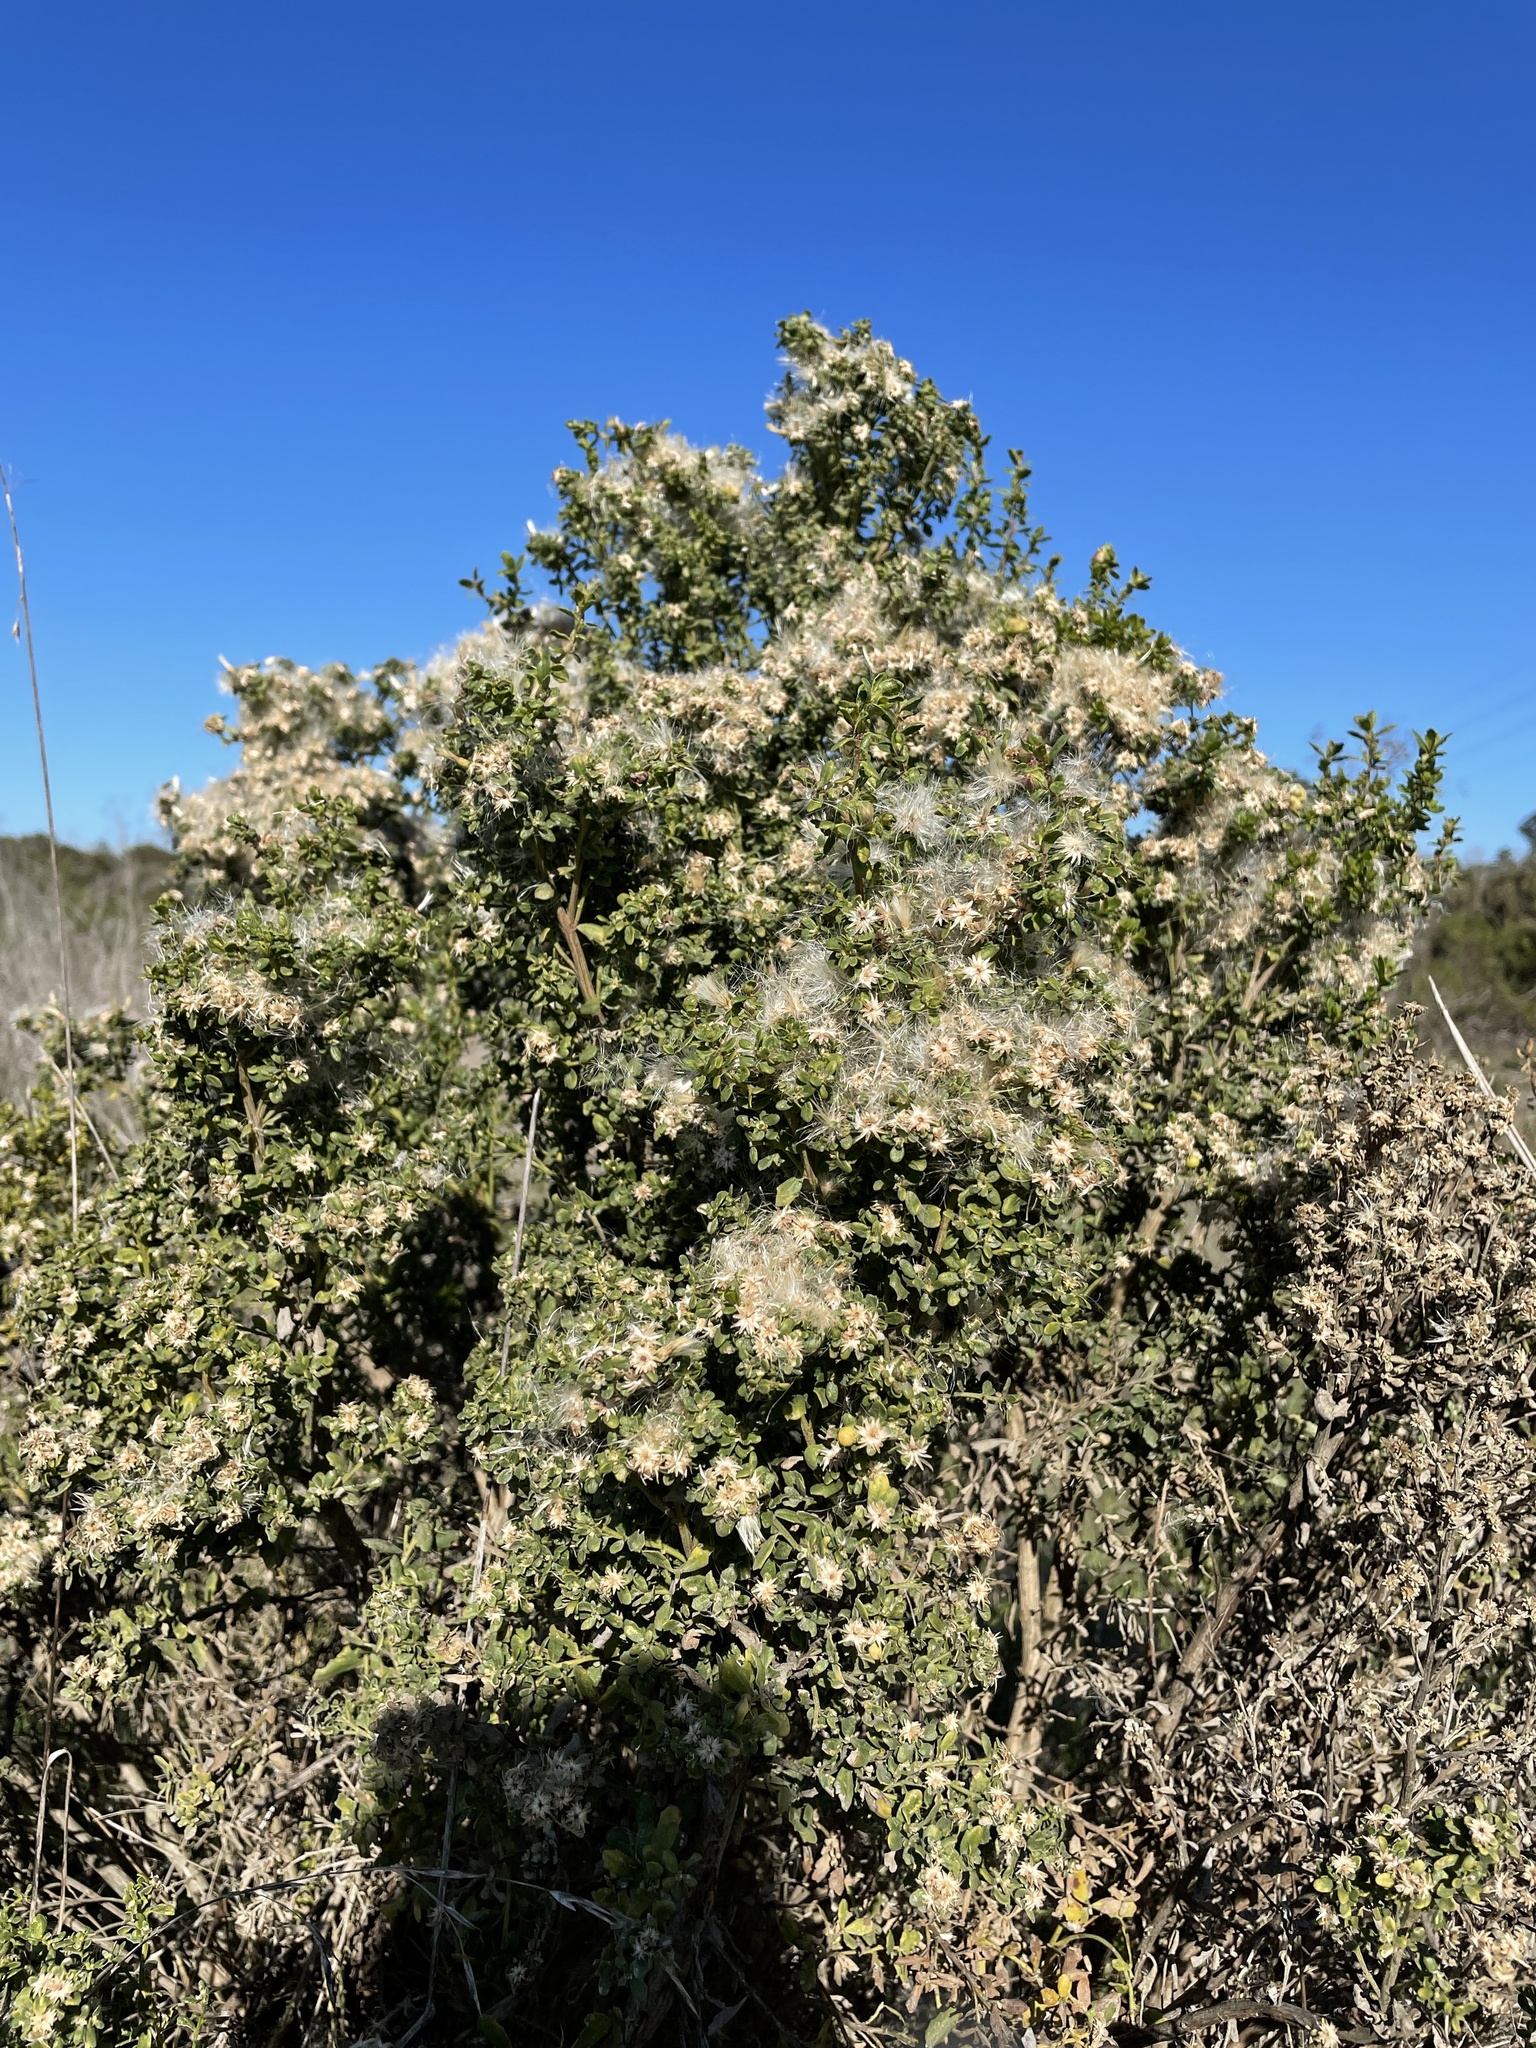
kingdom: Plantae
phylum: Tracheophyta
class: Magnoliopsida
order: Asterales
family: Asteraceae
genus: Baccharis
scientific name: Baccharis pilularis
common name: Coyotebrush
